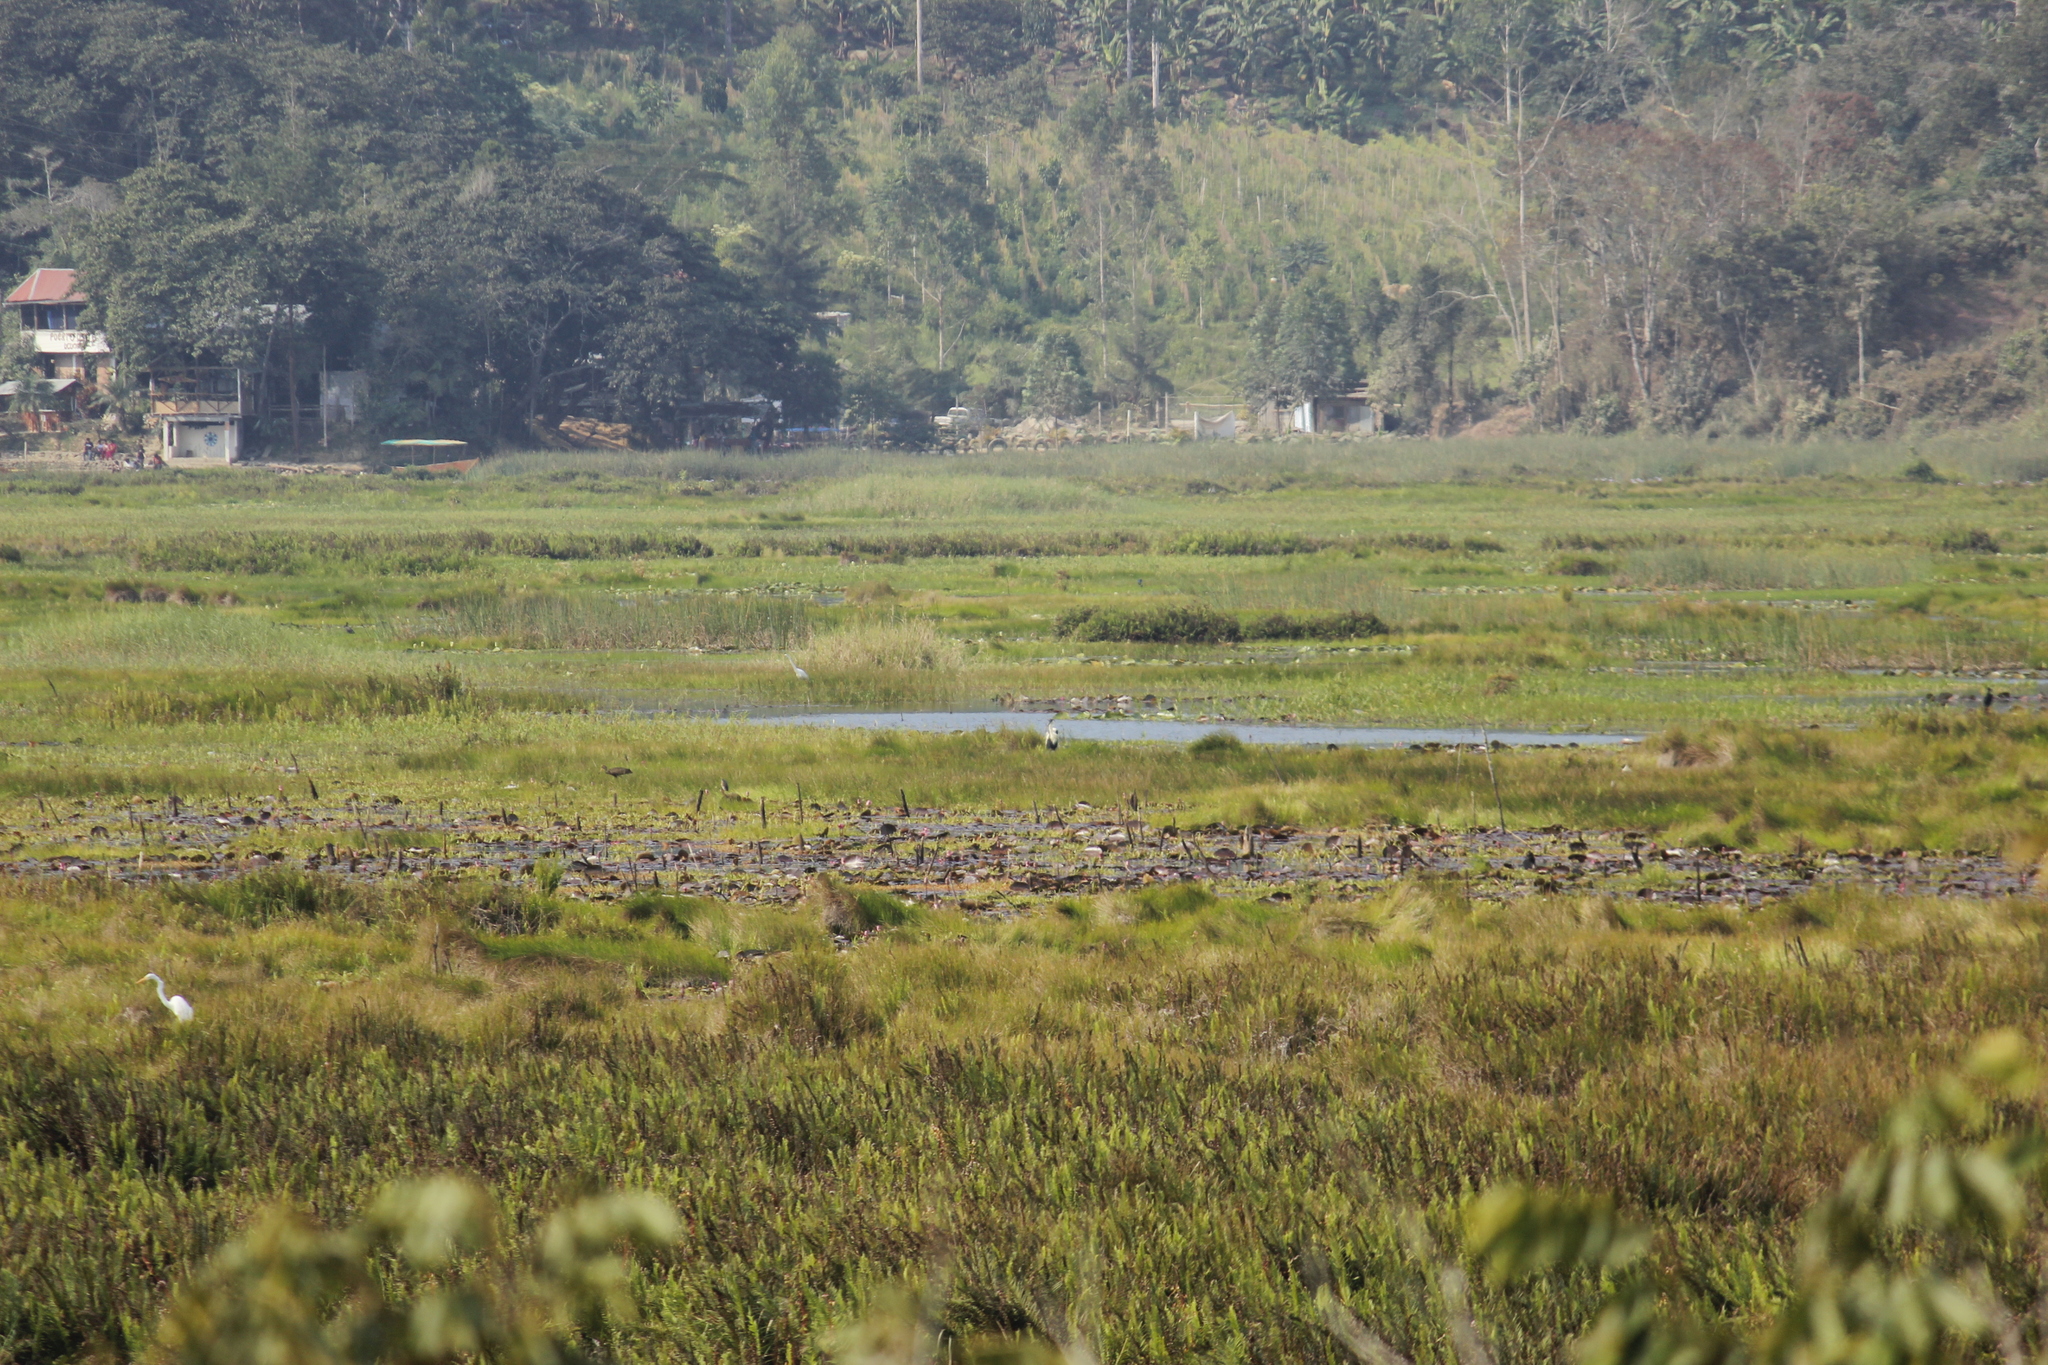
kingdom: Animalia
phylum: Chordata
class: Aves
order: Pelecaniformes
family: Ardeidae
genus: Ardea
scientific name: Ardea cocoi
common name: Cocoi heron
